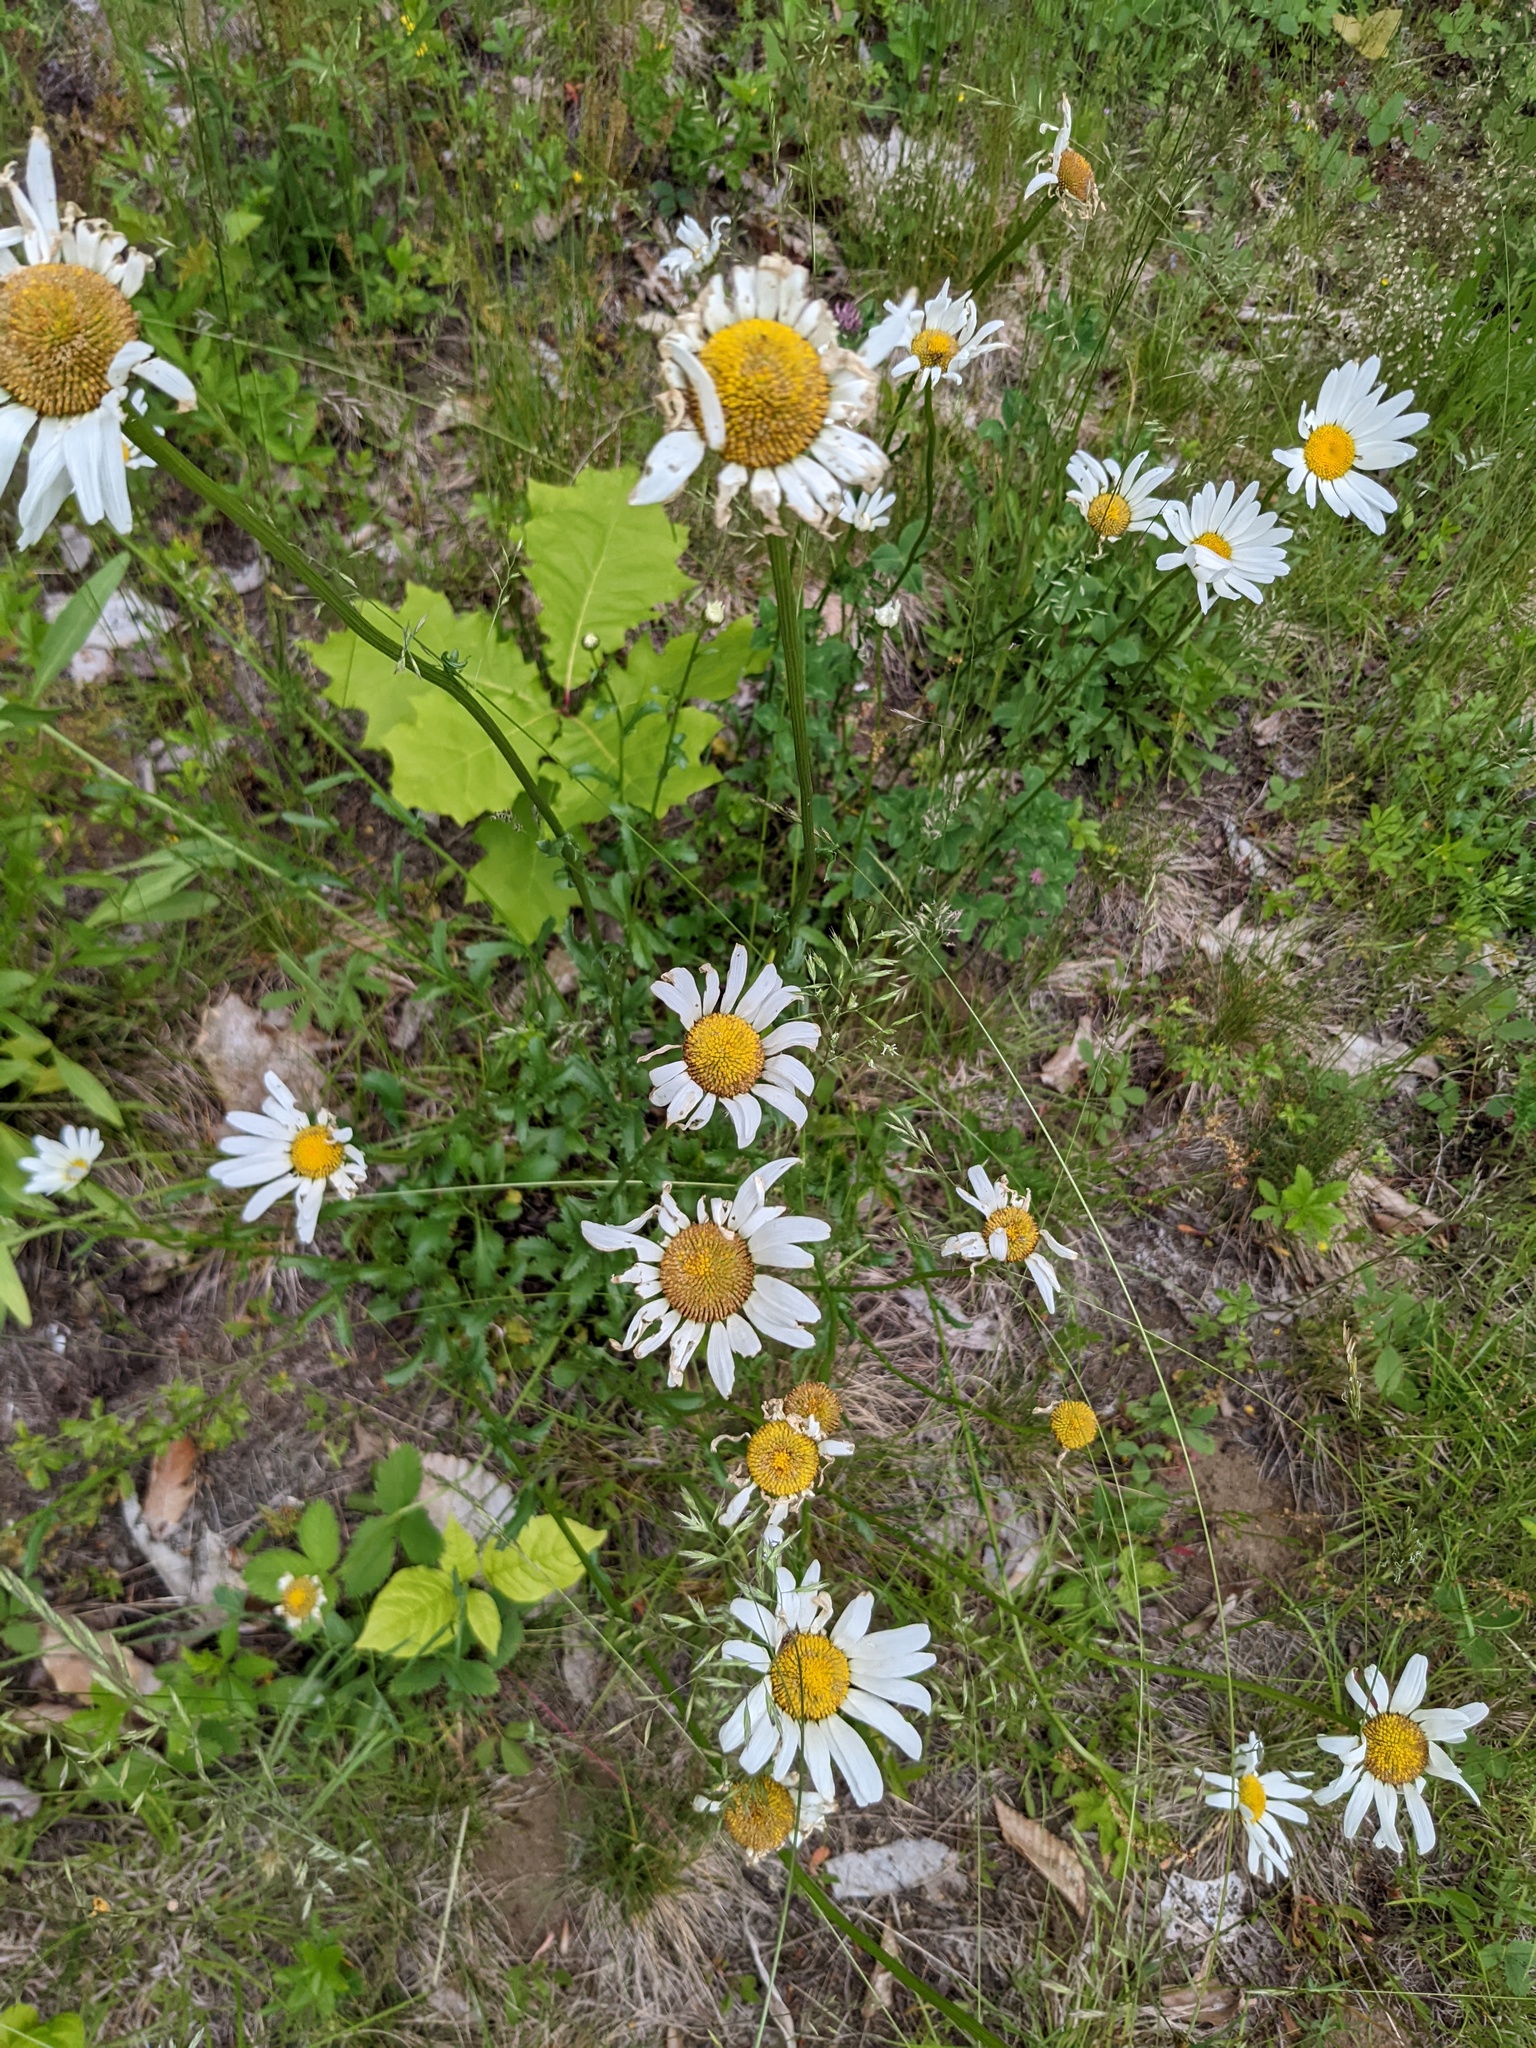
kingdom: Plantae
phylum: Tracheophyta
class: Magnoliopsida
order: Asterales
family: Asteraceae
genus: Leucanthemum
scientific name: Leucanthemum vulgare
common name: Oxeye daisy
